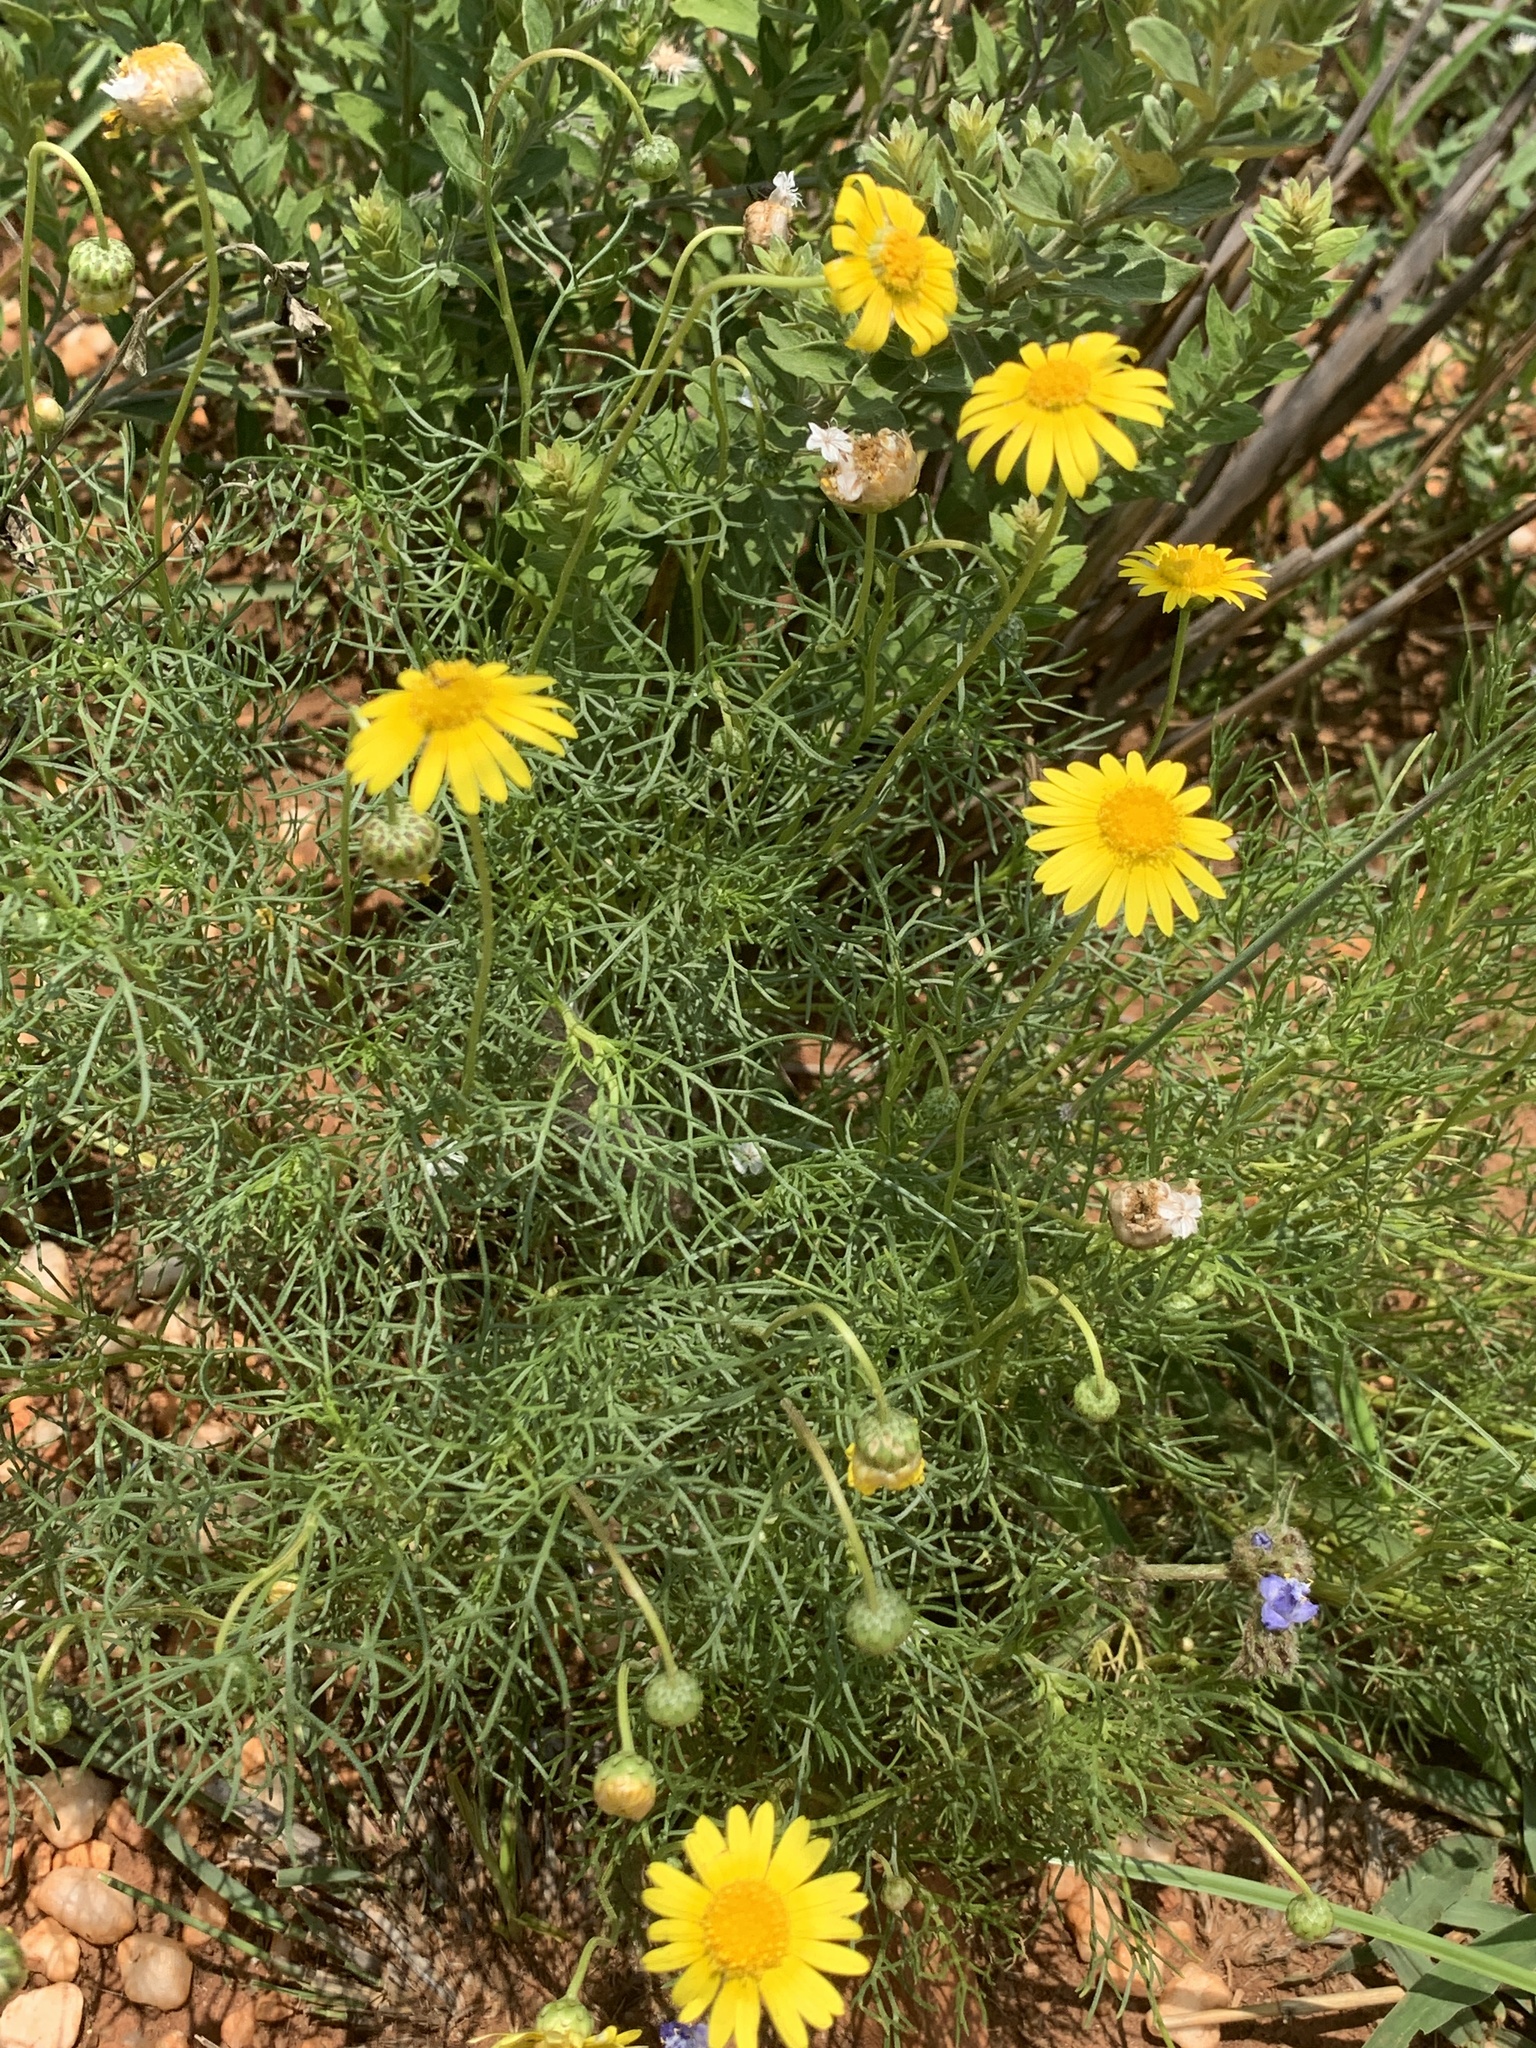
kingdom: Plantae
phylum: Tracheophyta
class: Magnoliopsida
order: Asterales
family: Asteraceae
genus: Ursinia
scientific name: Ursinia nana
